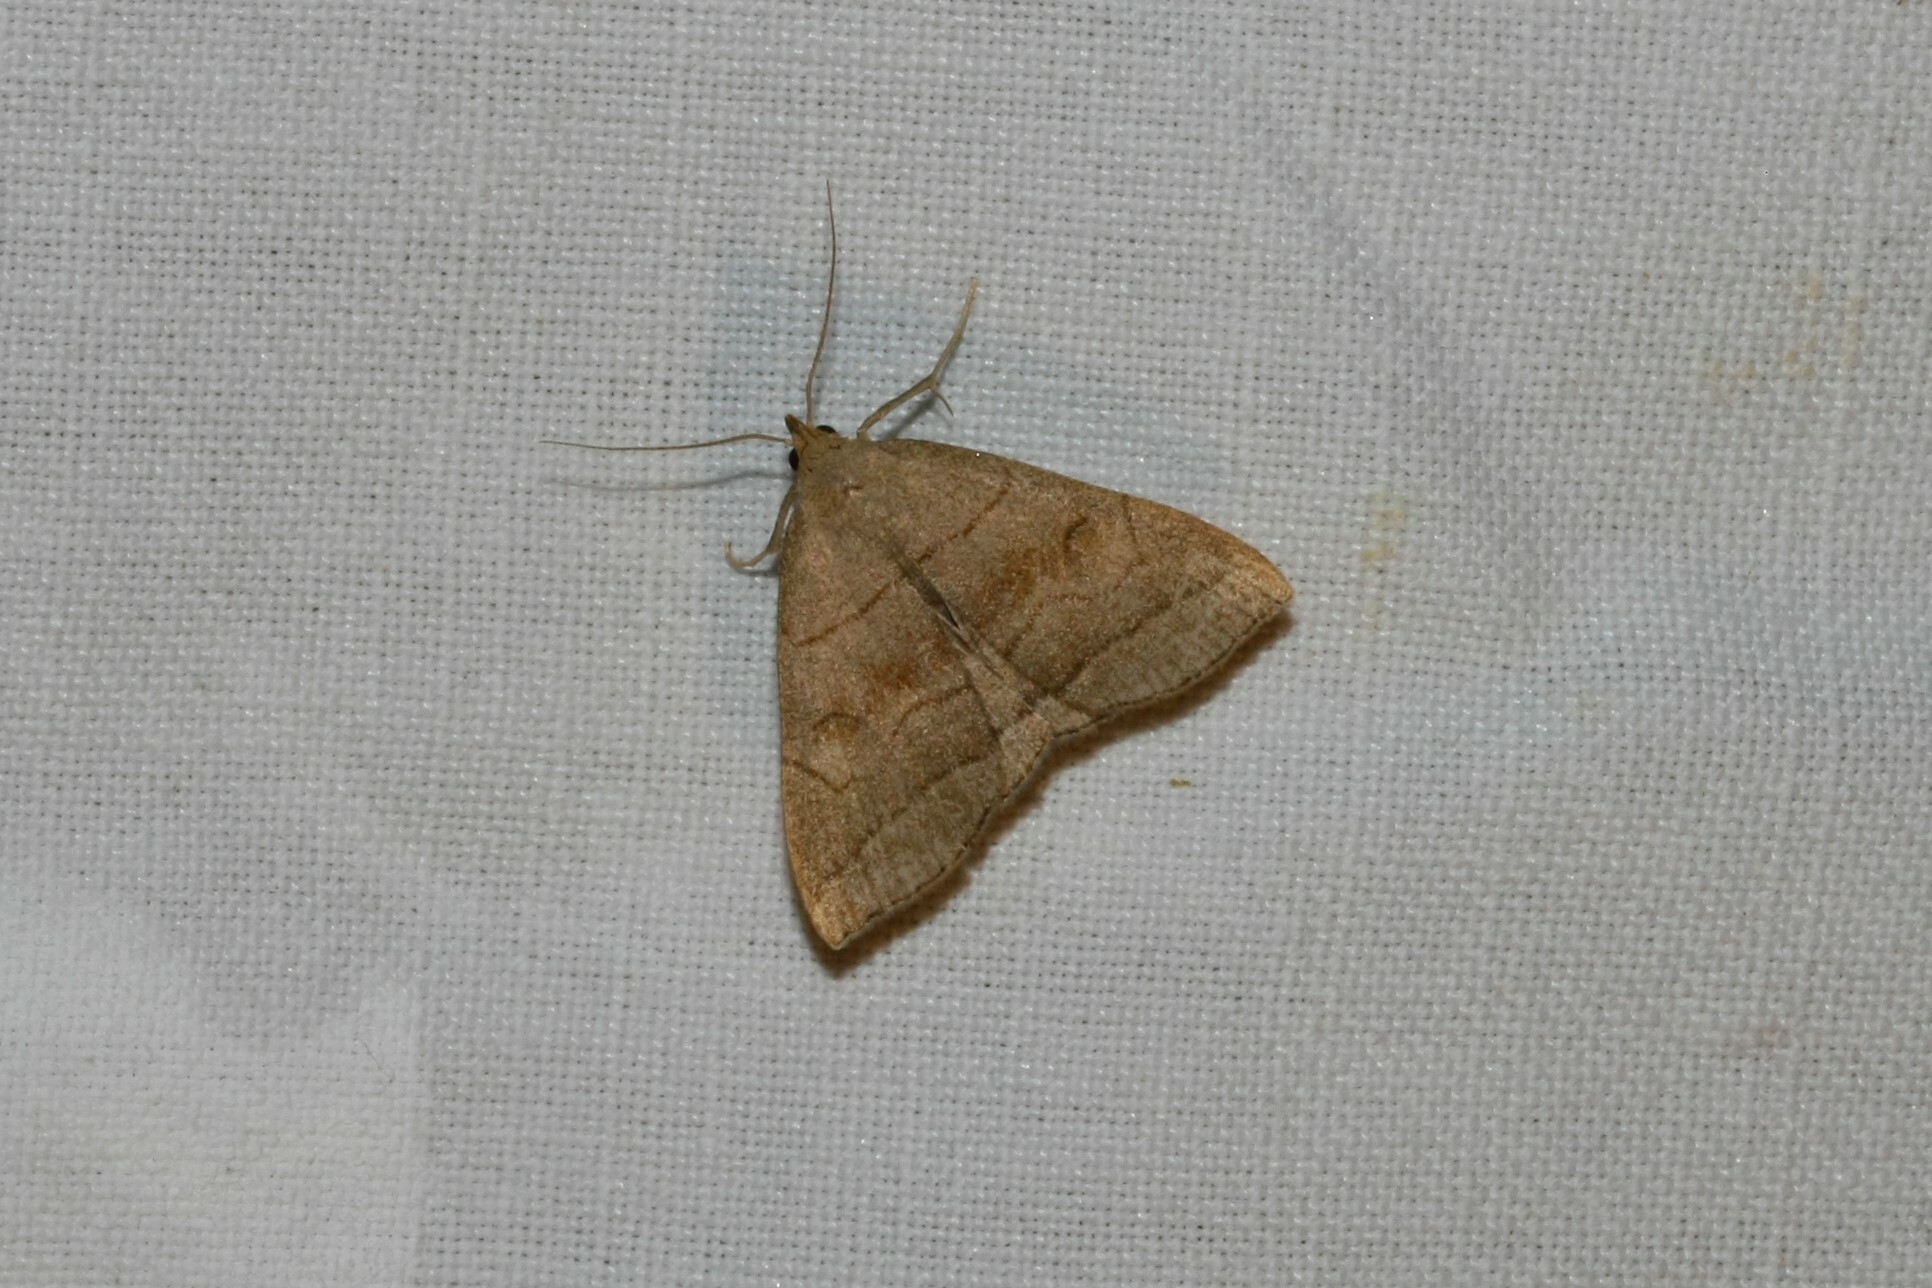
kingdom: Animalia
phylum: Arthropoda
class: Insecta
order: Lepidoptera
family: Erebidae
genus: Herminia
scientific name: Herminia tarsicrinalis
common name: Shaded fan-foot
